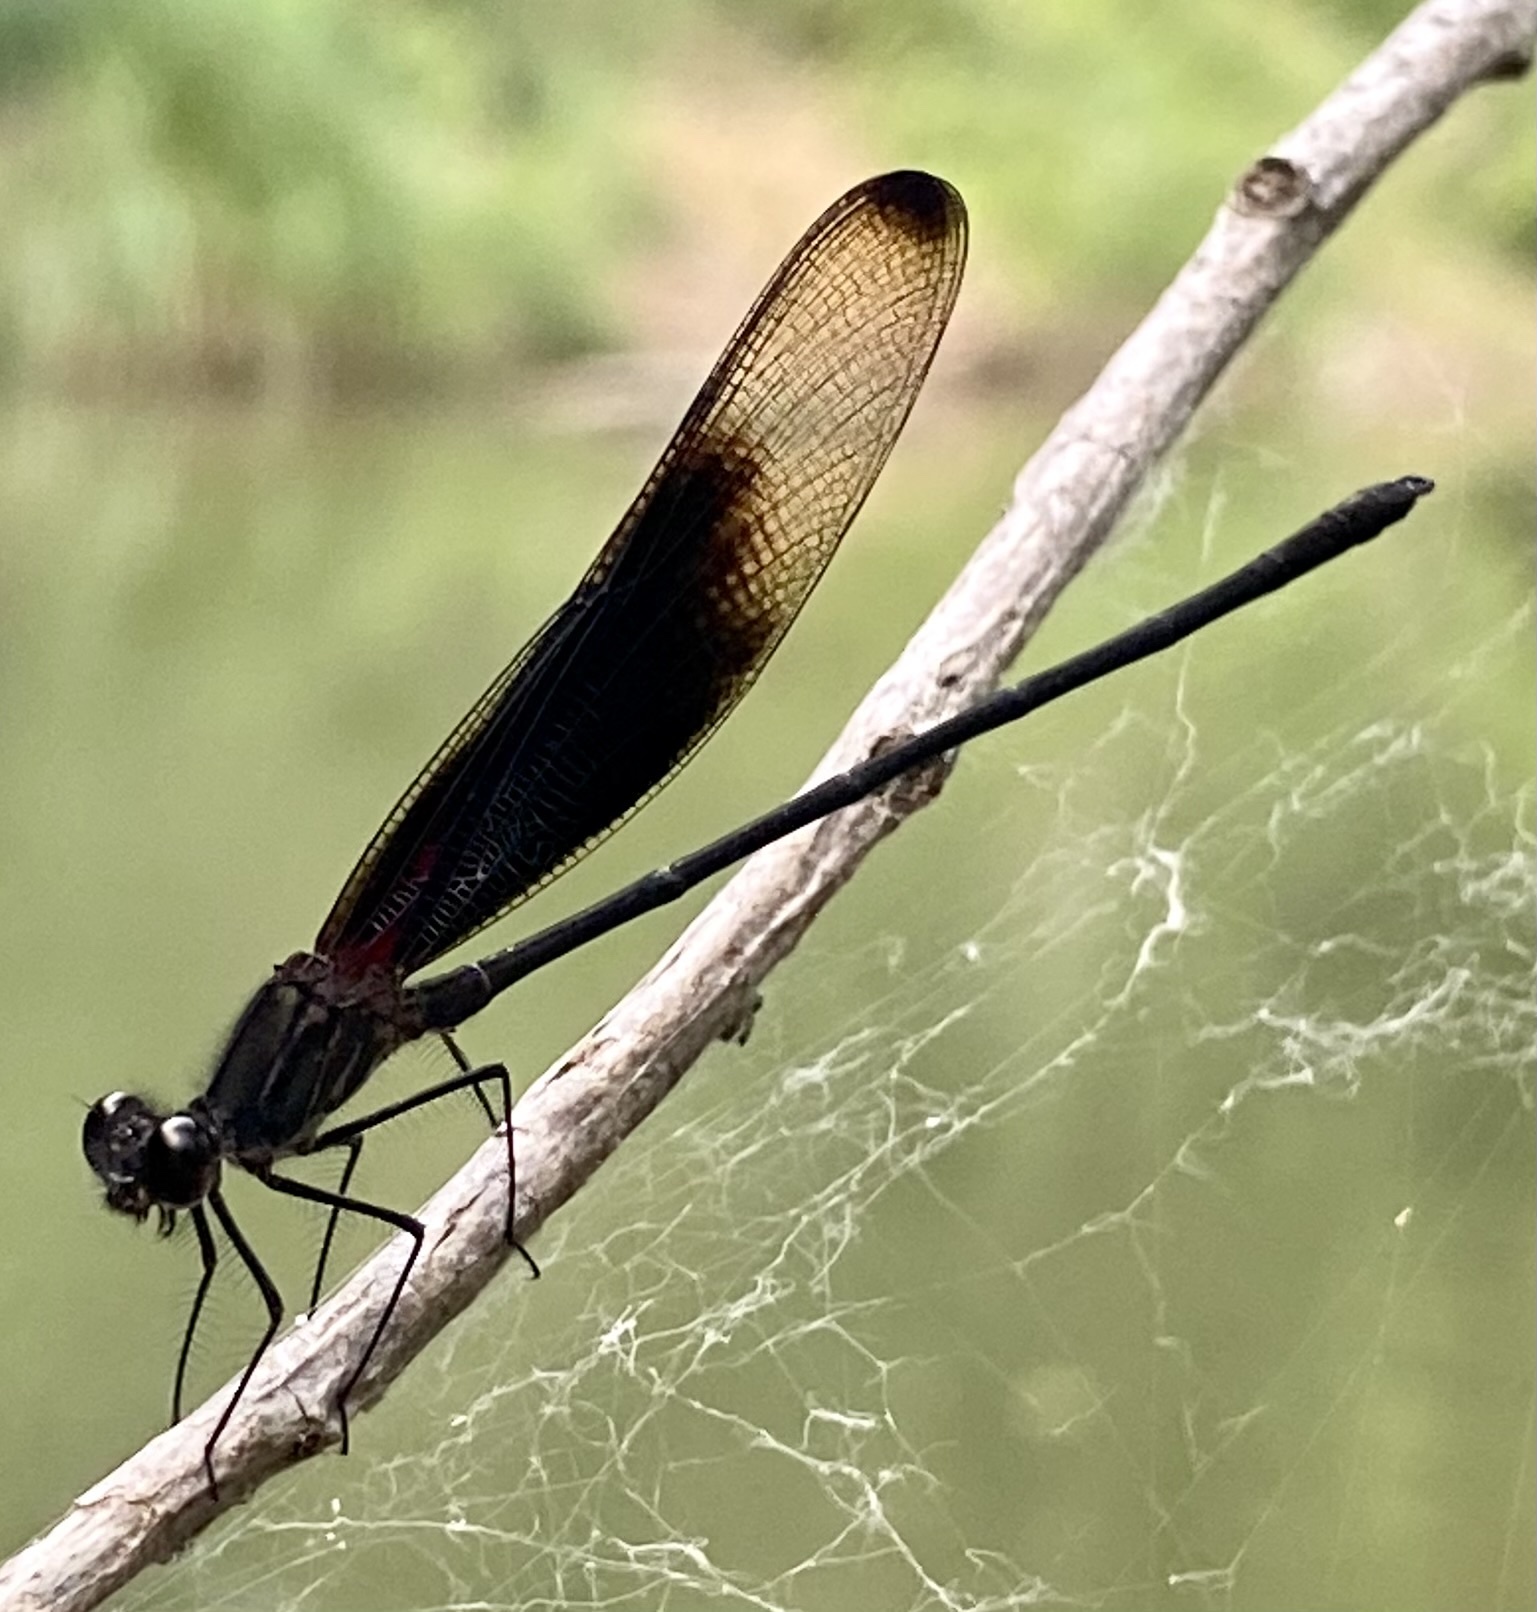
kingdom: Animalia
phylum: Arthropoda
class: Insecta
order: Odonata
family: Calopterygidae
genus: Hetaerina
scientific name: Hetaerina titia
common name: Smoky rubyspot
